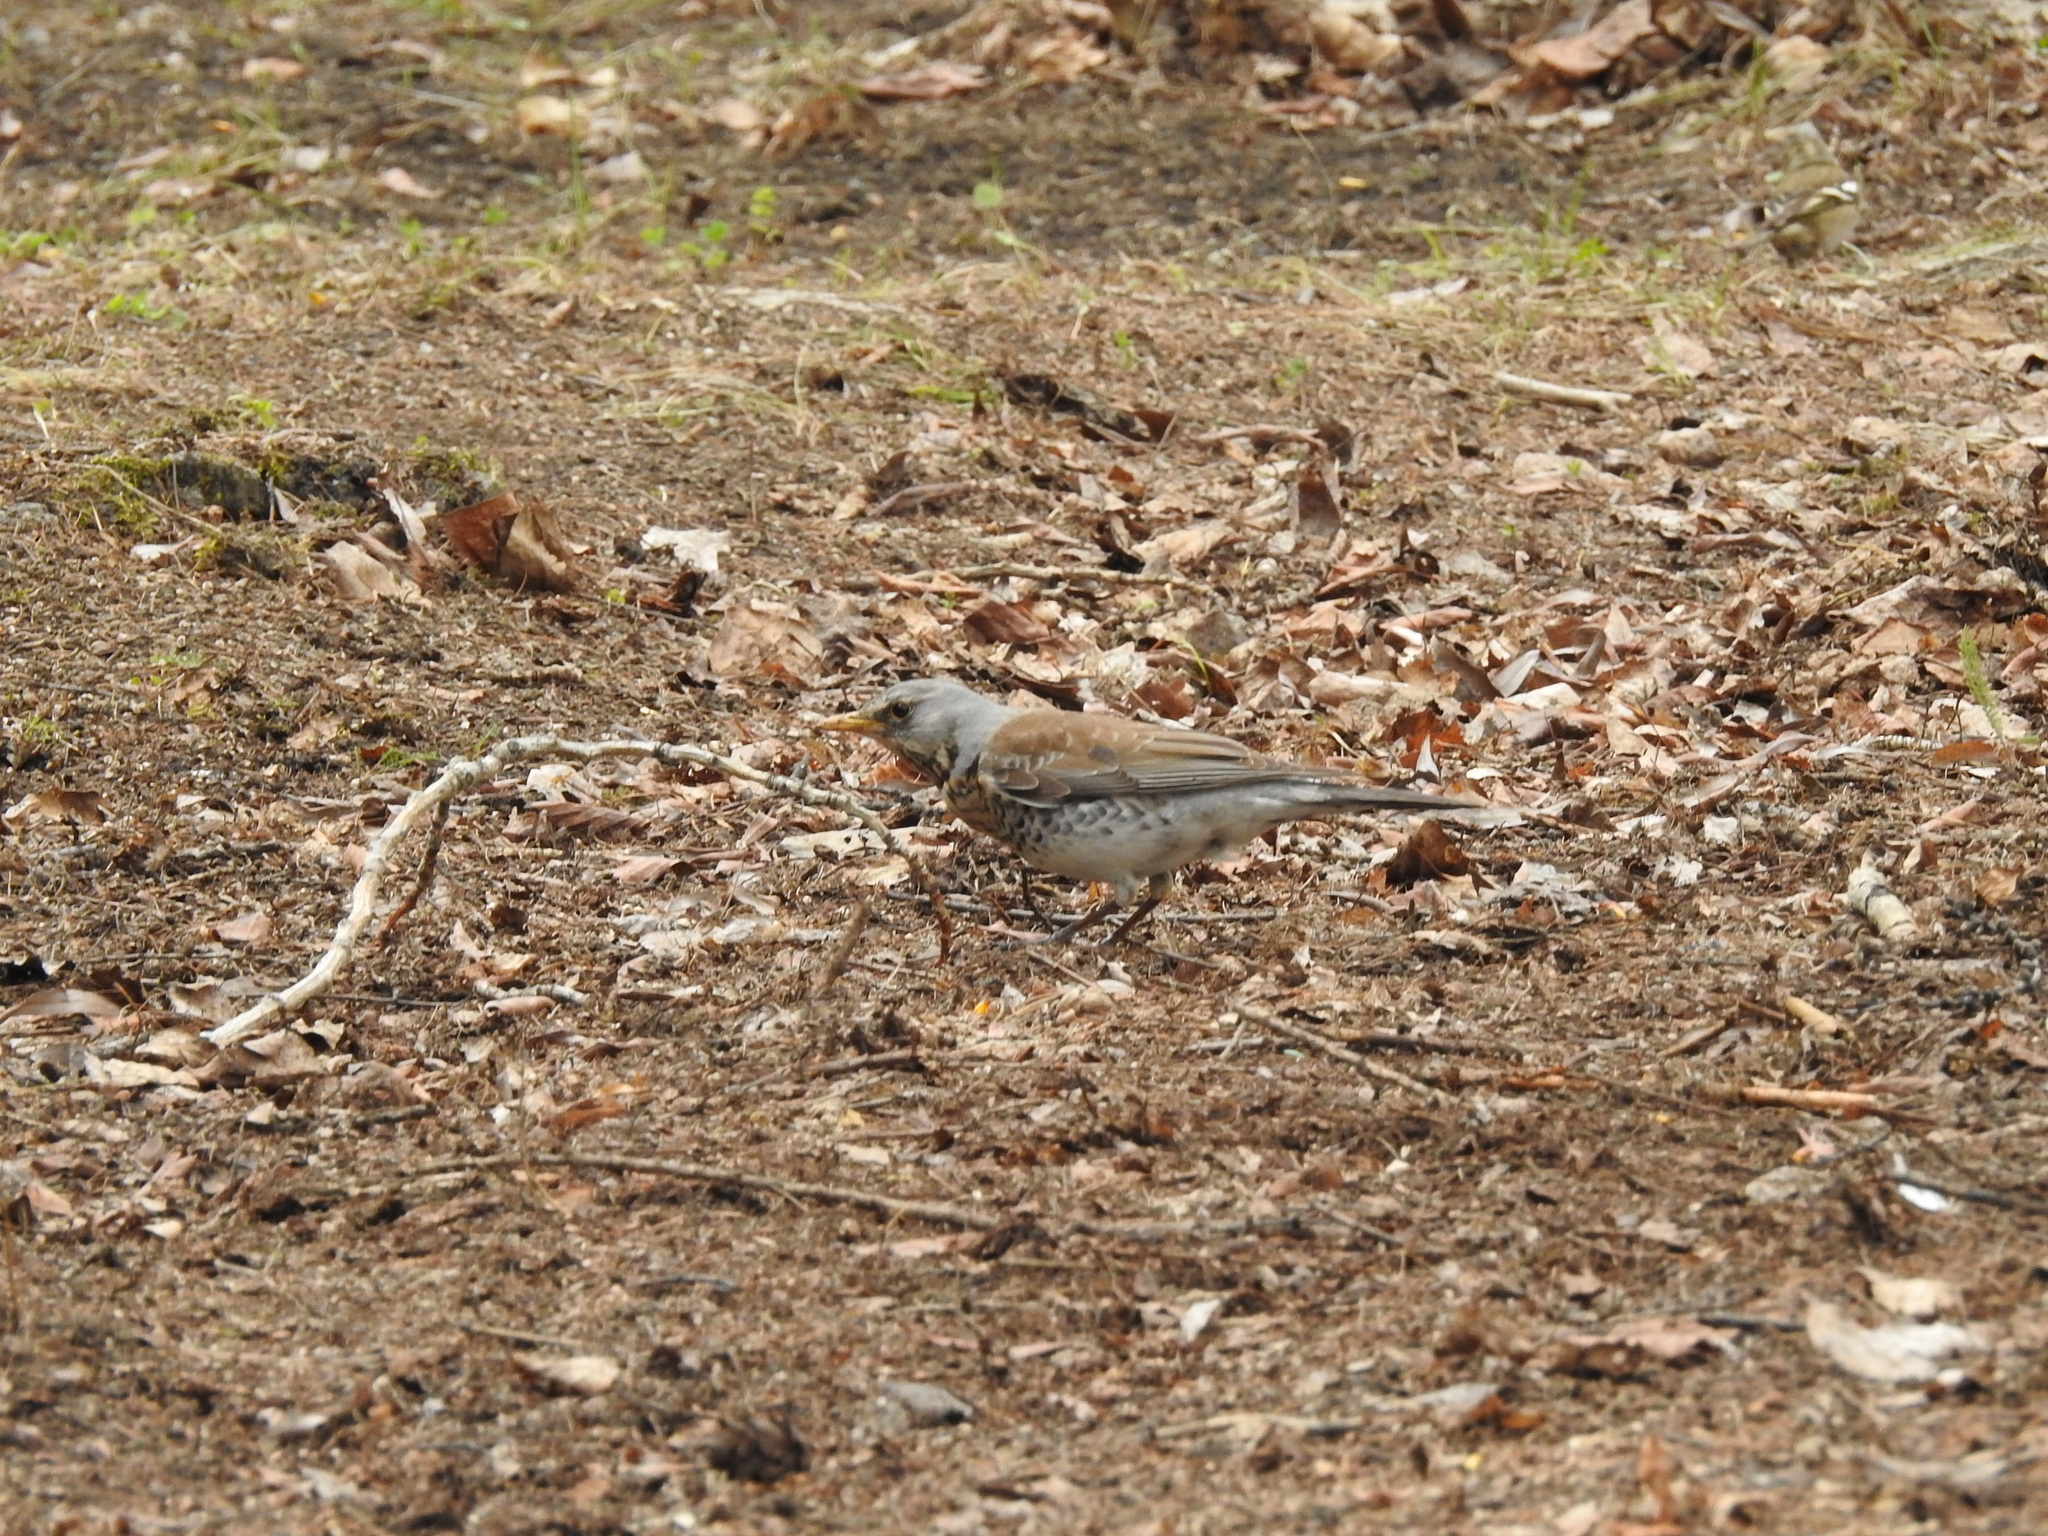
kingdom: Animalia
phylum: Chordata
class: Aves
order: Passeriformes
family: Turdidae
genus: Turdus
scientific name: Turdus pilaris
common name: Fieldfare
